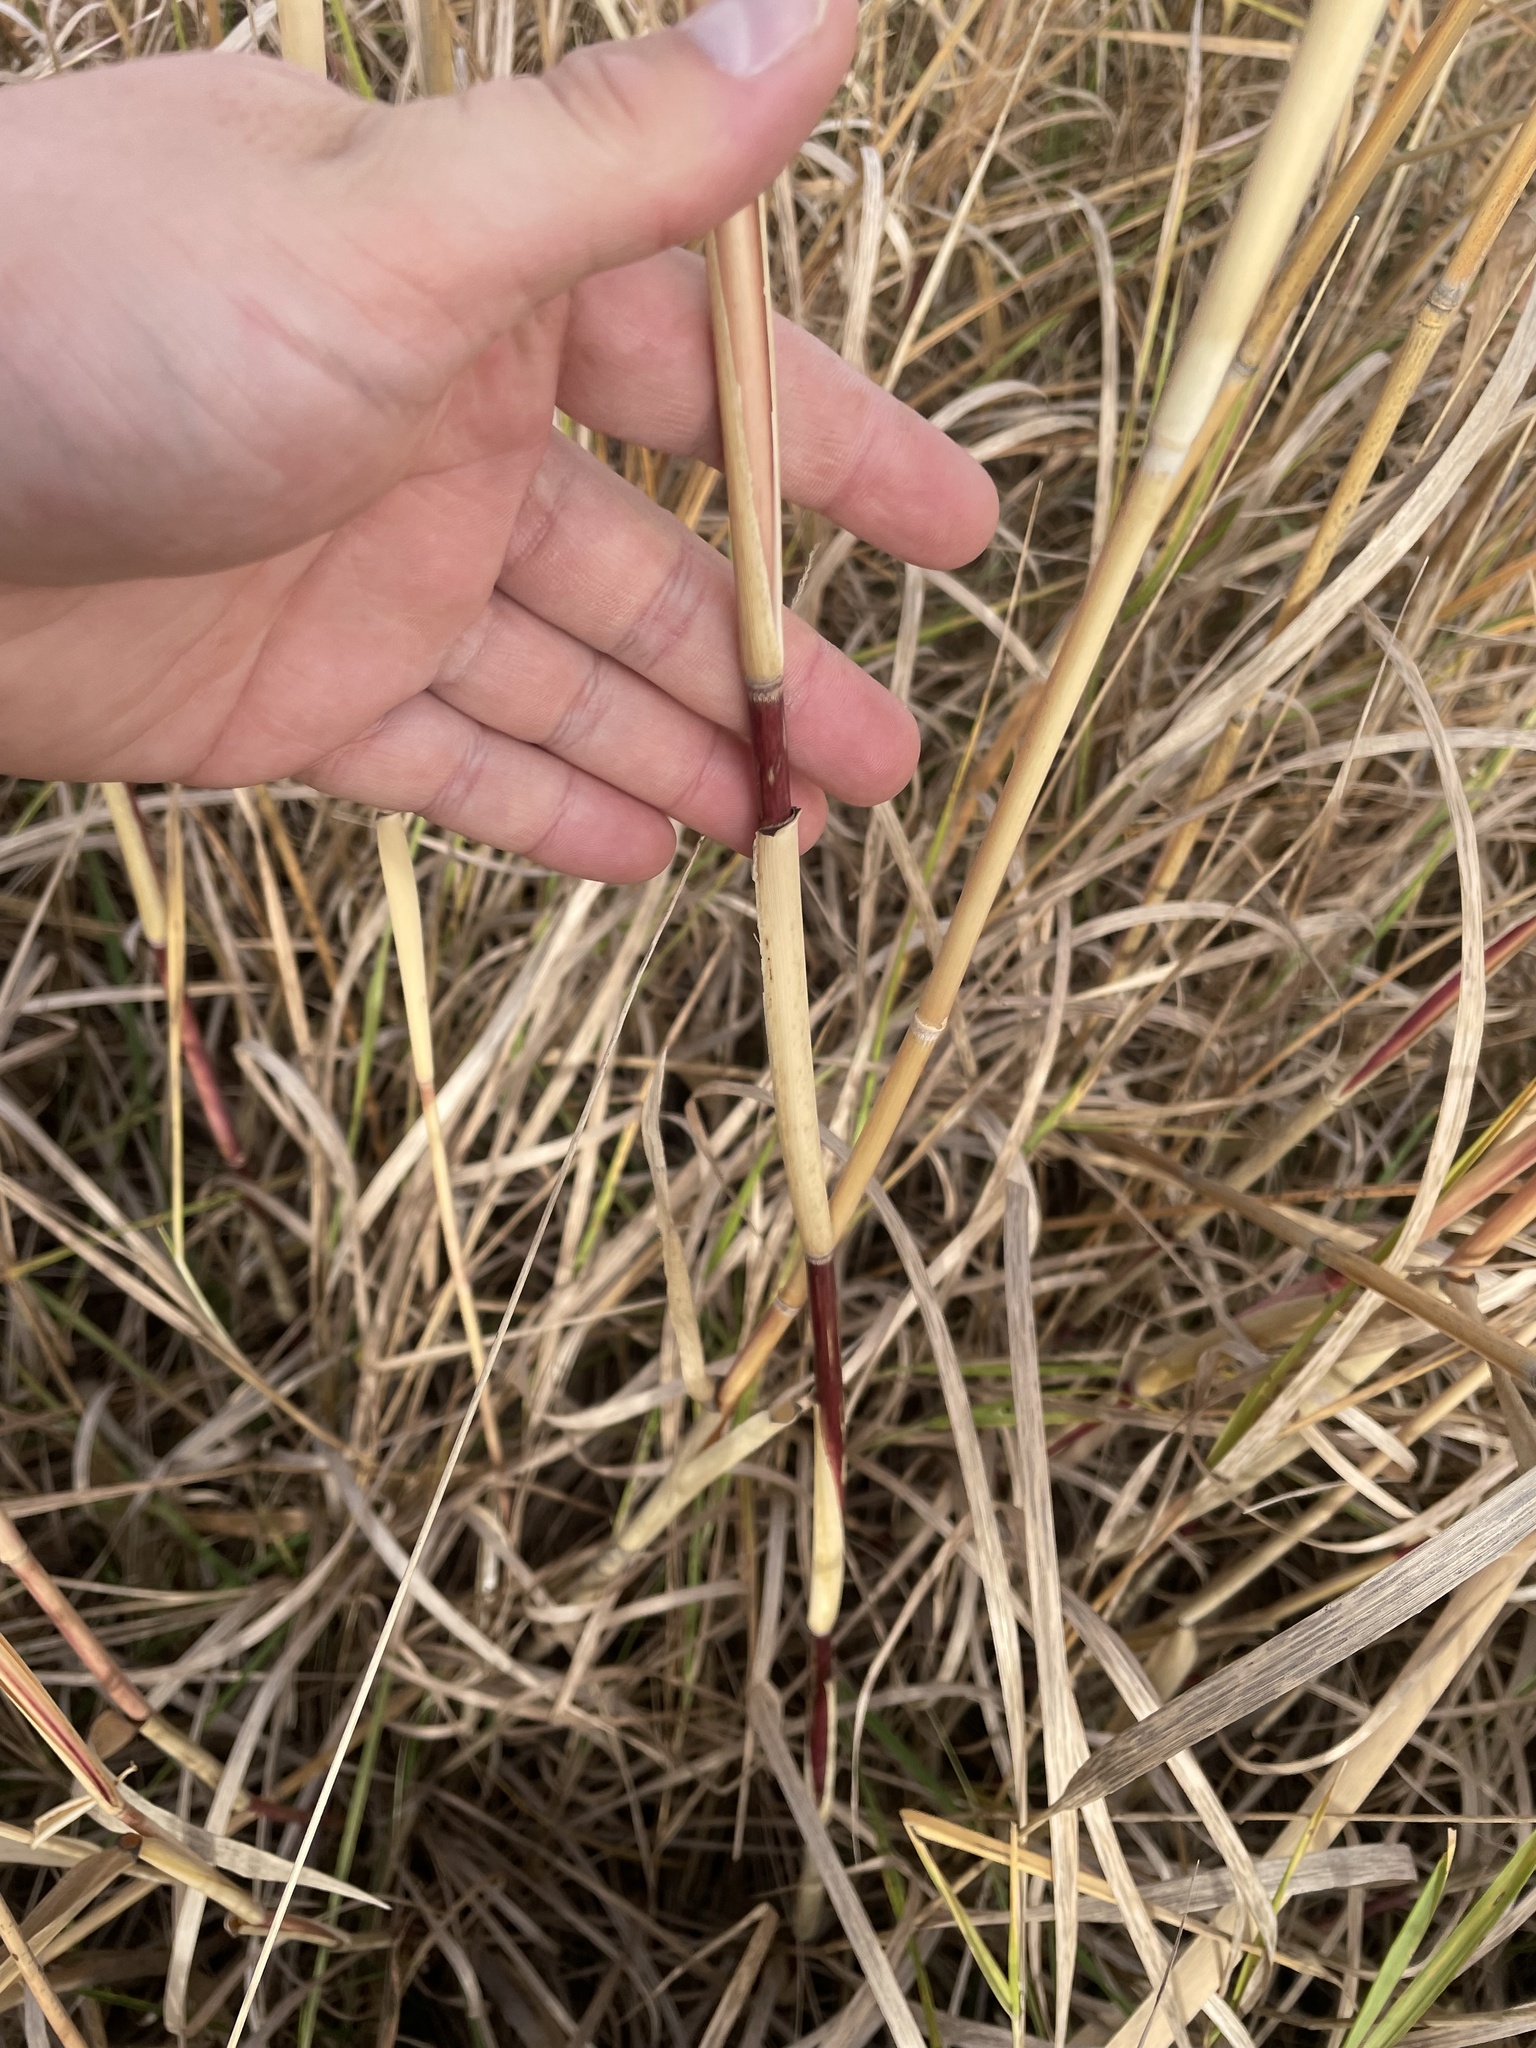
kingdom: Plantae
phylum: Tracheophyta
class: Liliopsida
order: Poales
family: Poaceae
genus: Phragmites
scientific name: Phragmites australis
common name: Common reed
